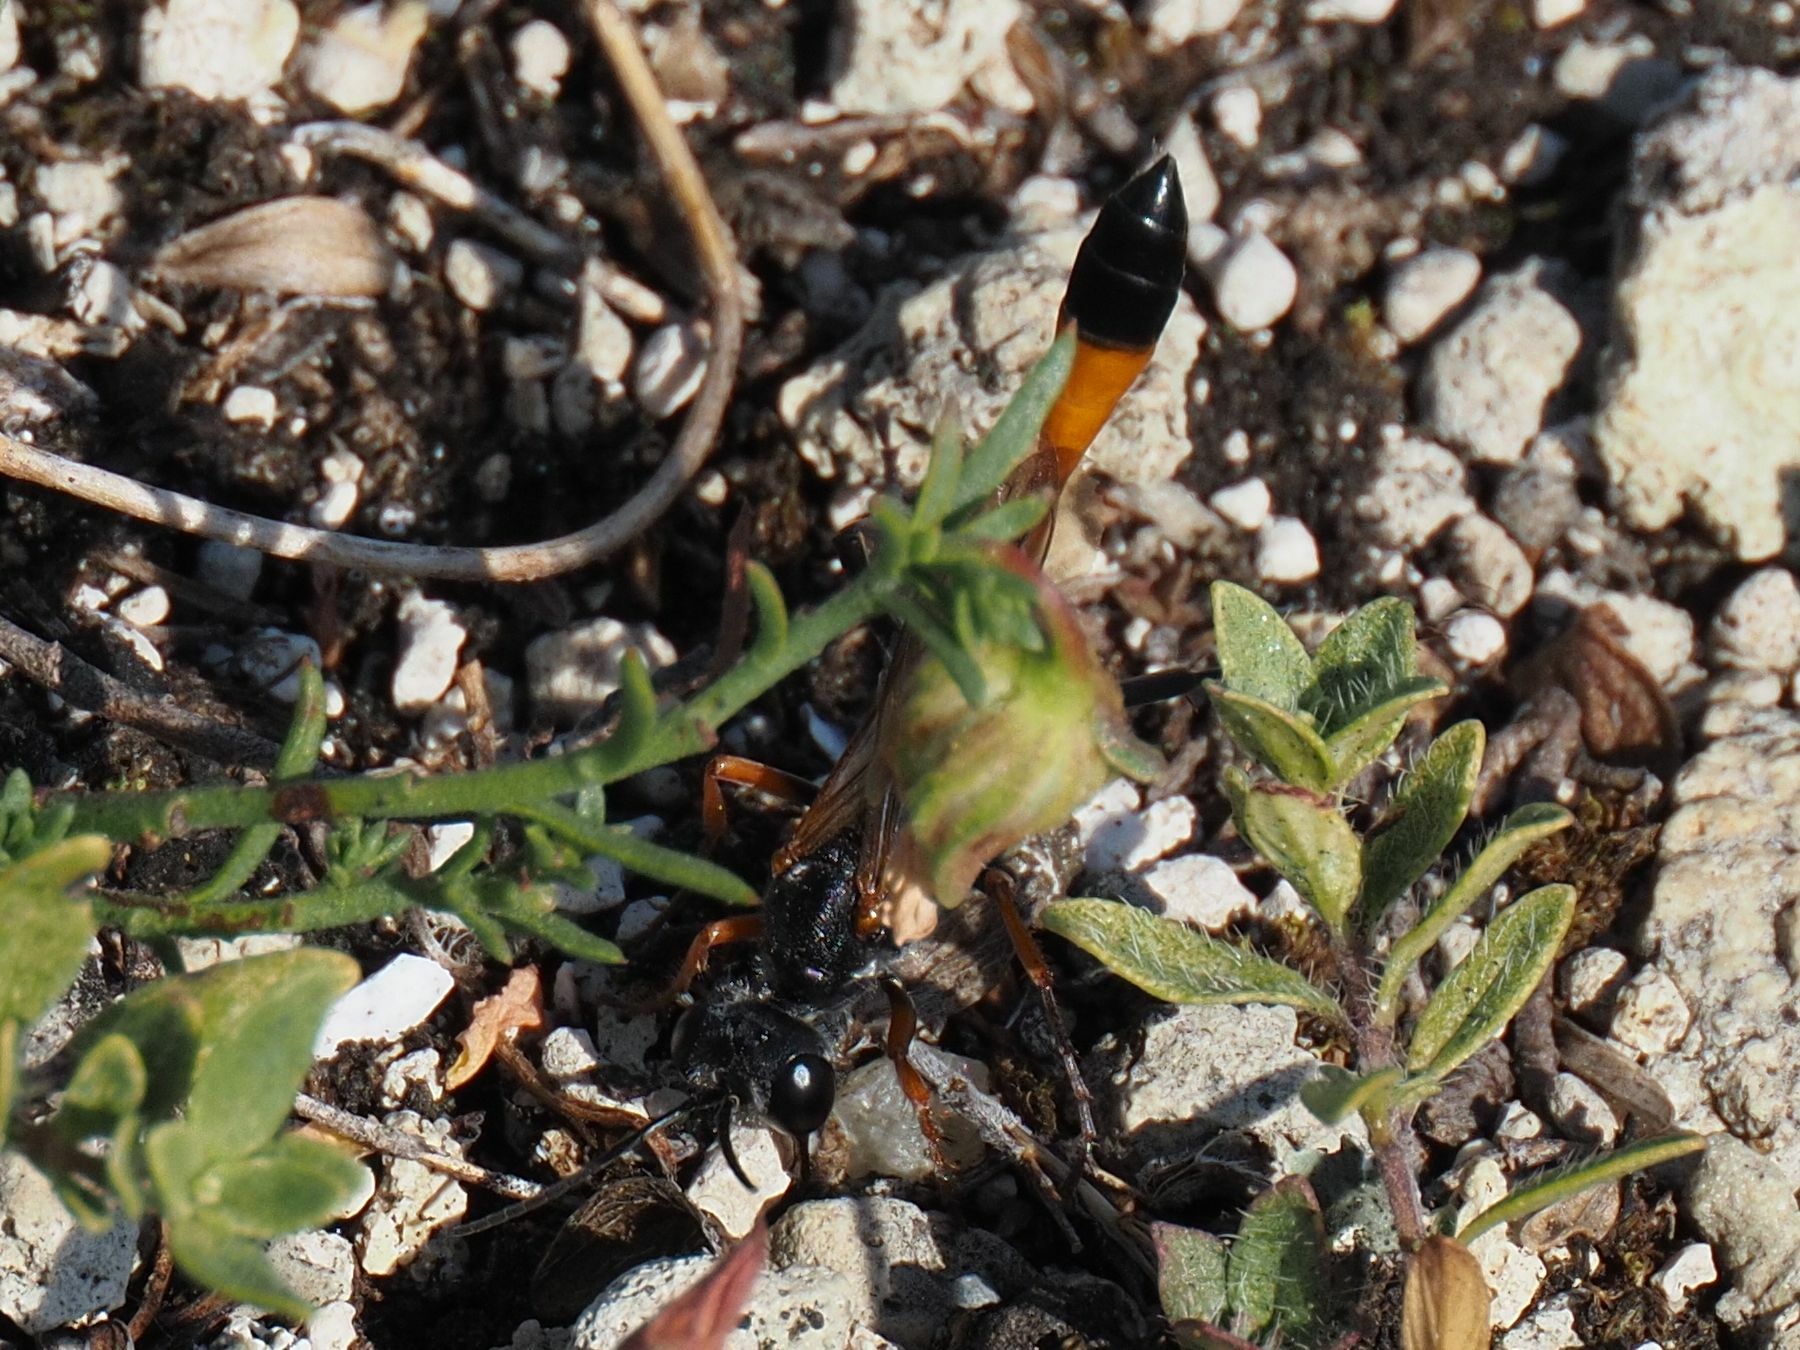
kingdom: Animalia
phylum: Arthropoda
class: Insecta
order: Hymenoptera
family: Sphecidae
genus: Ammophila
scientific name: Ammophila heydeni
